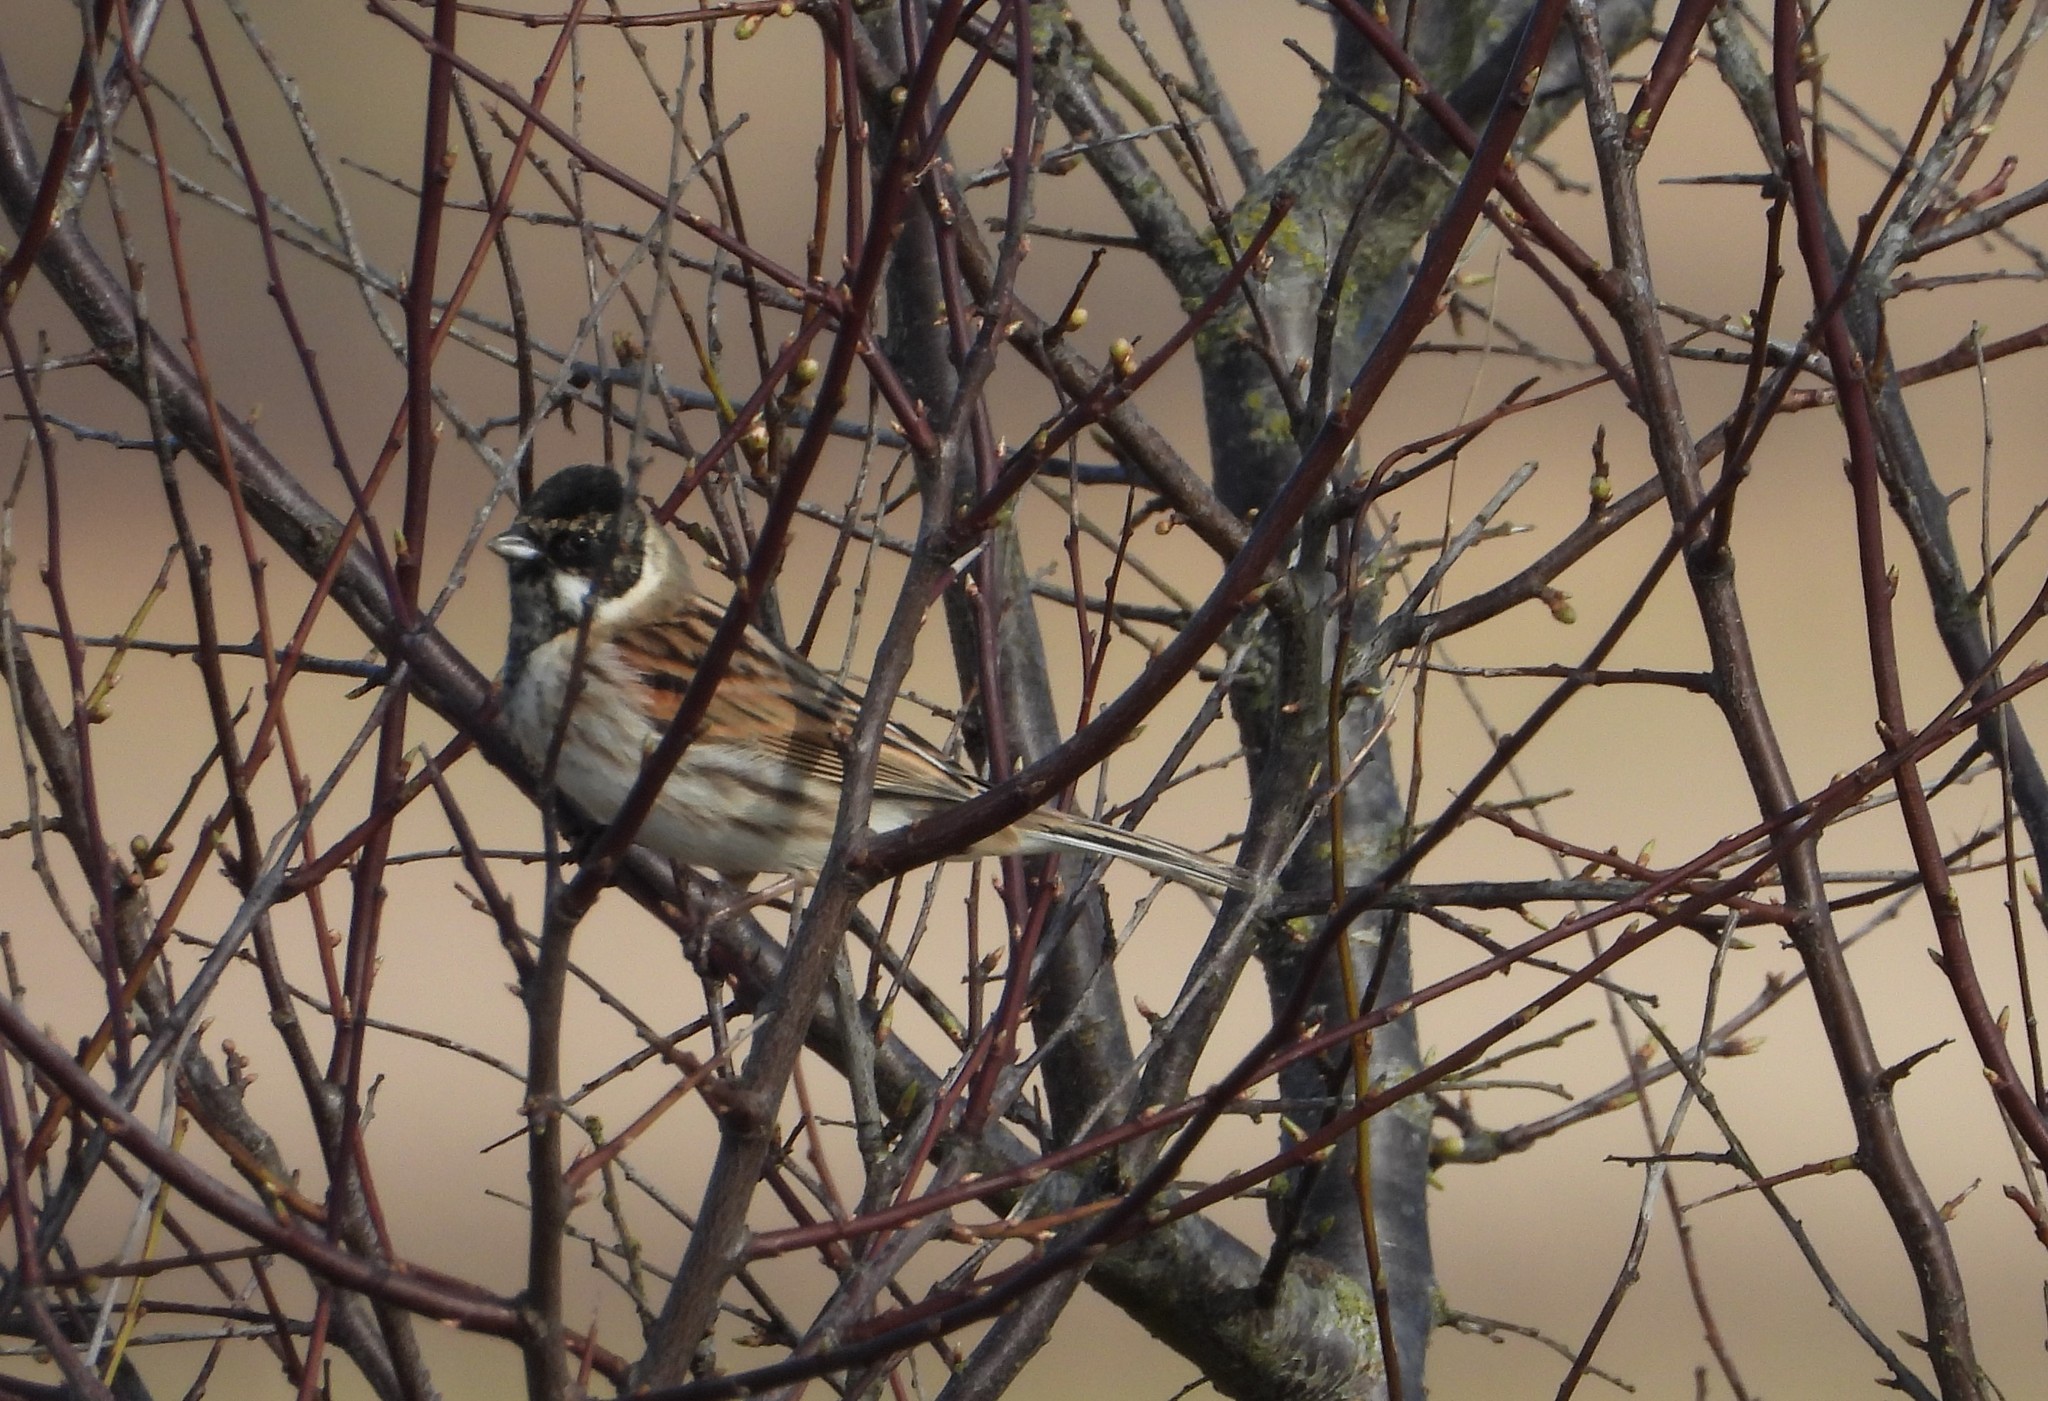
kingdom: Animalia
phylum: Chordata
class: Aves
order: Passeriformes
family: Emberizidae
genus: Emberiza
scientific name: Emberiza schoeniclus
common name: Reed bunting
